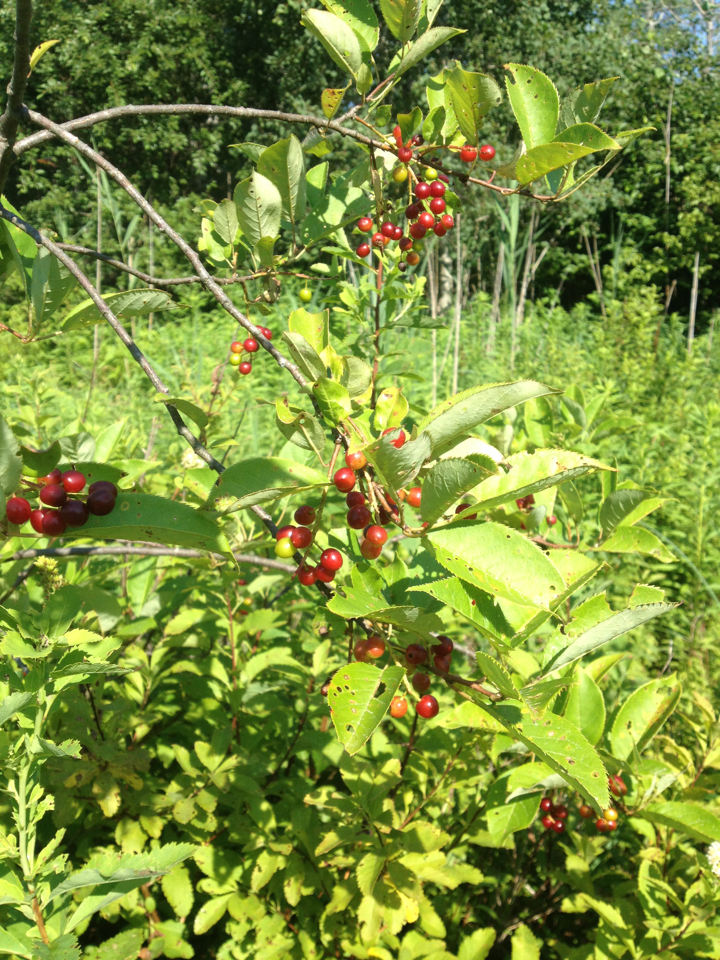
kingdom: Plantae
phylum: Tracheophyta
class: Magnoliopsida
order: Rosales
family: Rosaceae
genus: Prunus
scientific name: Prunus virginiana
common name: Chokecherry
